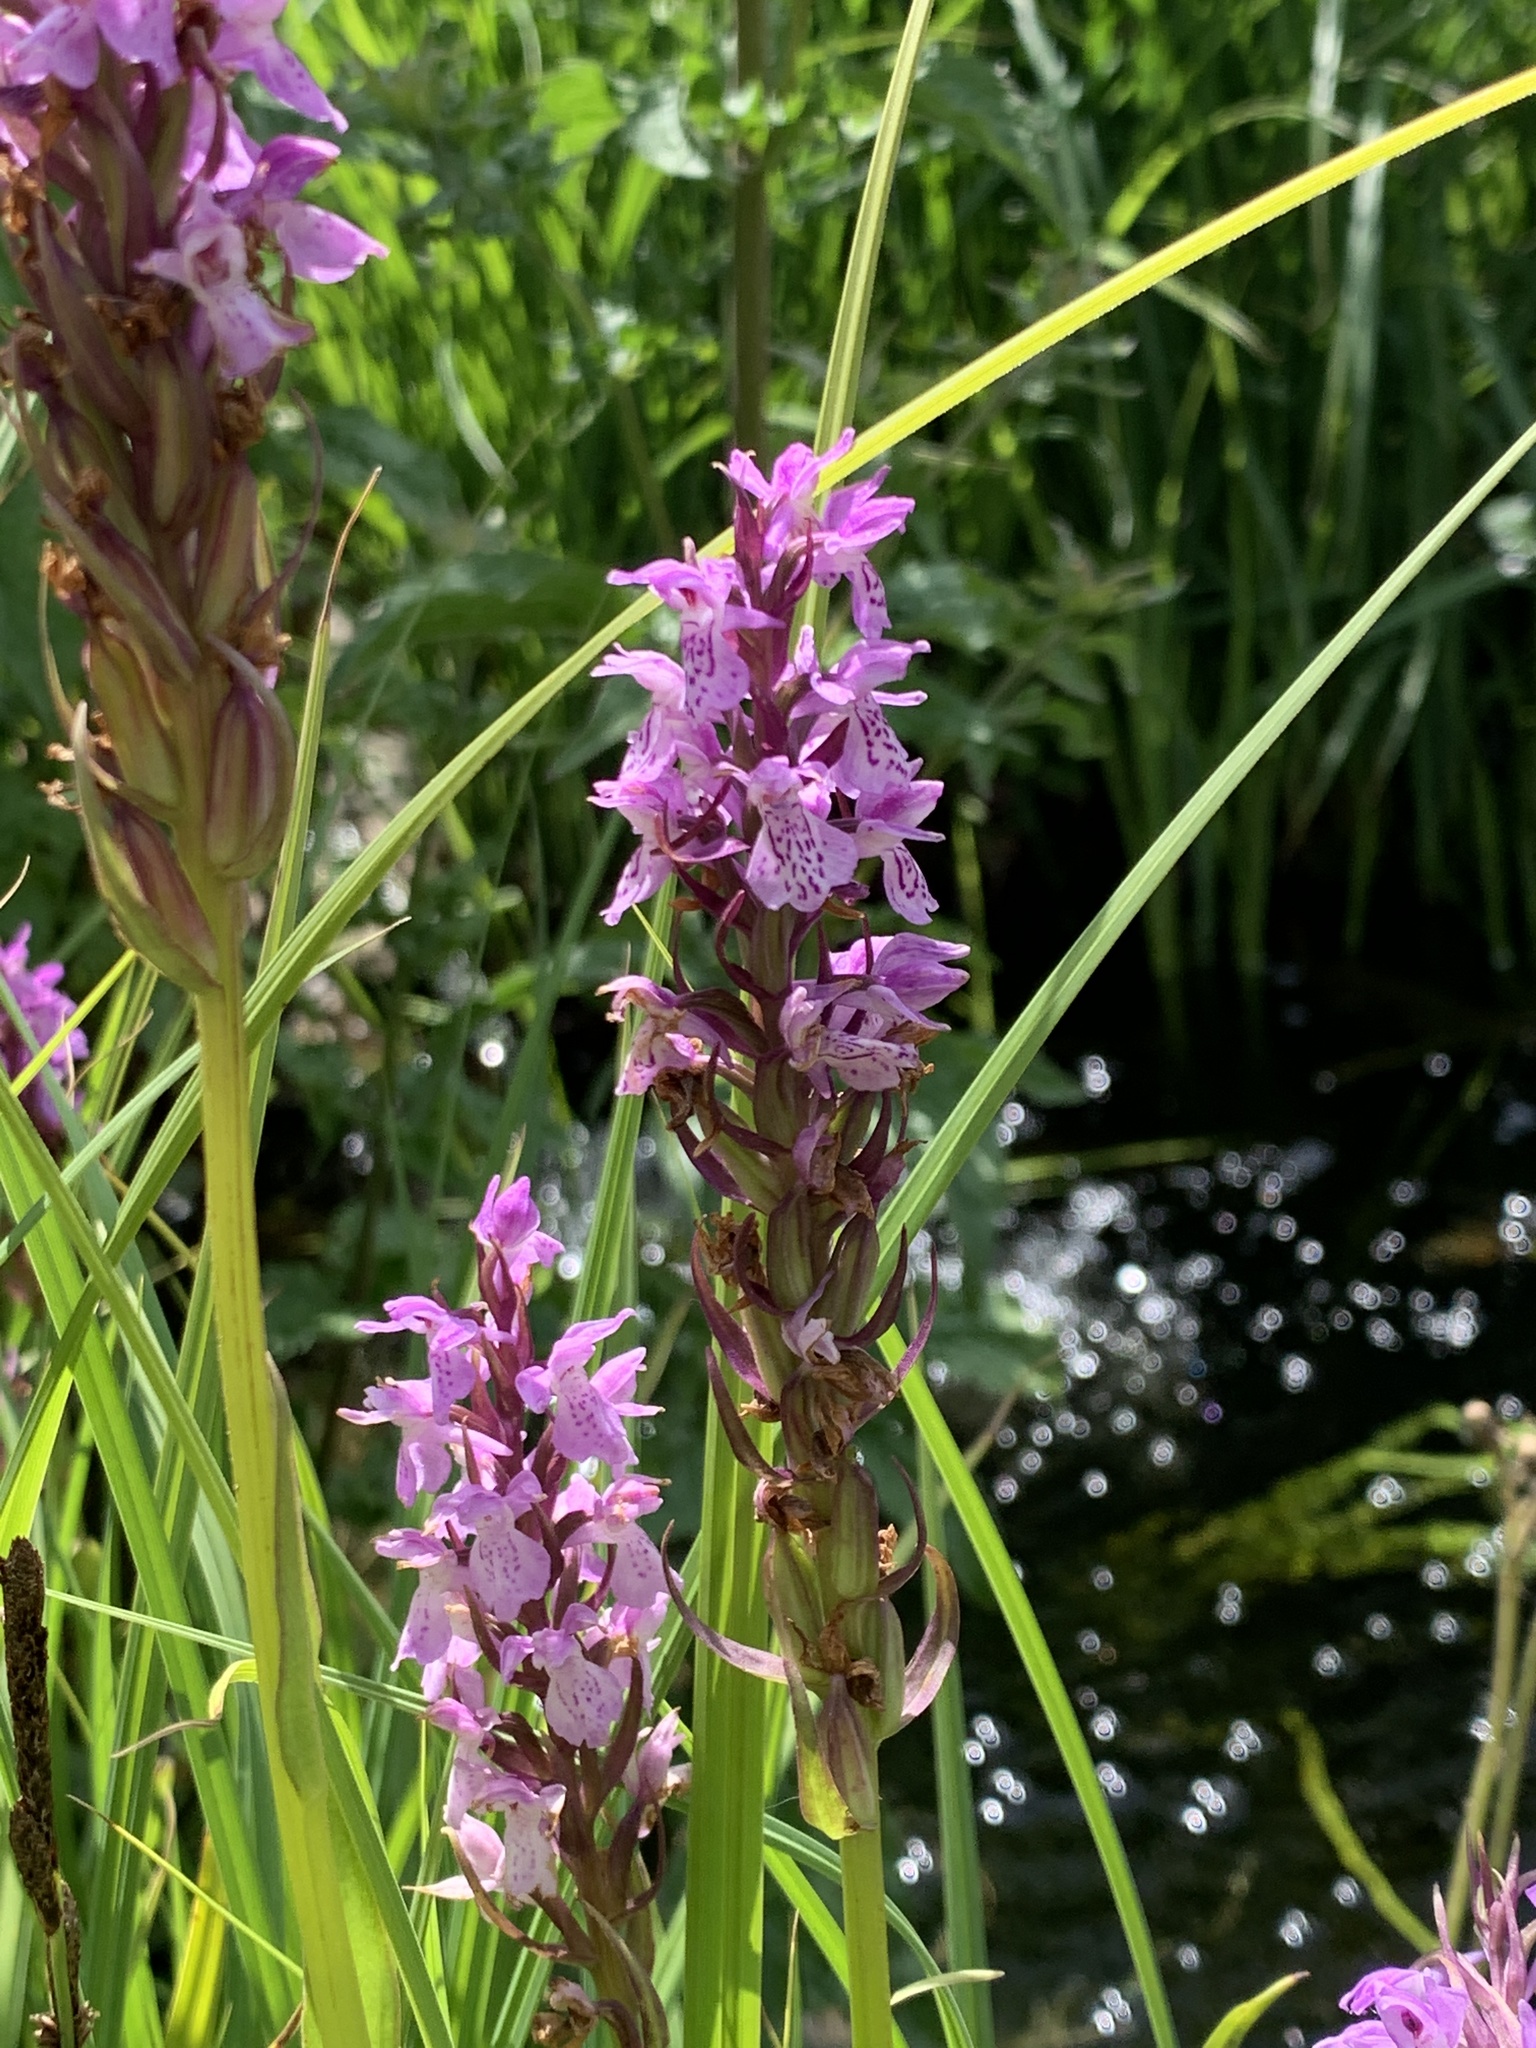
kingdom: Plantae
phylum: Tracheophyta
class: Liliopsida
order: Asparagales
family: Orchidaceae
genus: Dactylorhiza
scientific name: Dactylorhiza majalis
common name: Marsh orchid
